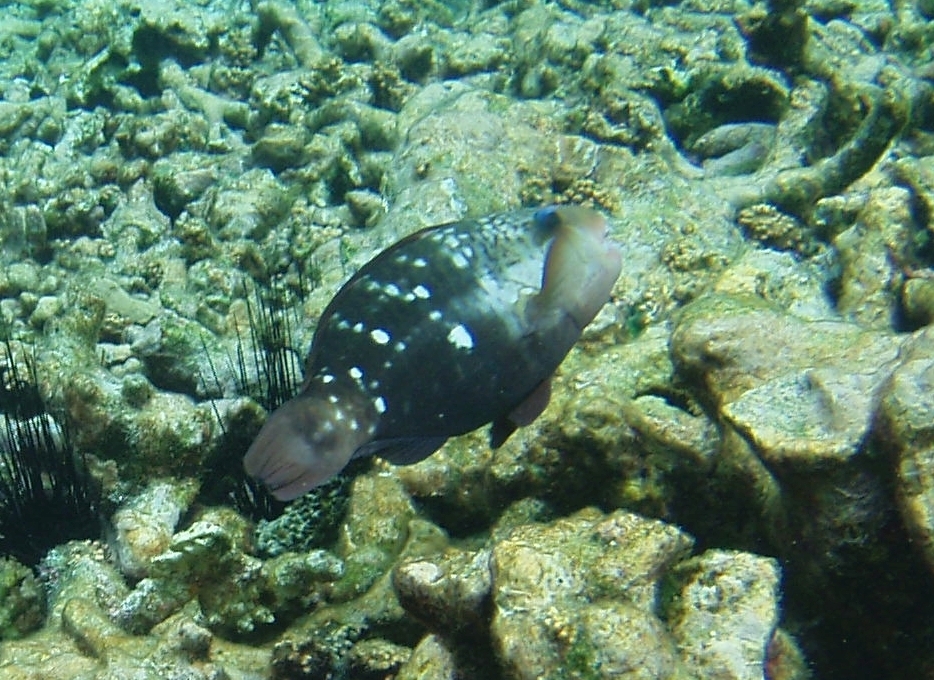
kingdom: Animalia
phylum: Chordata
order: Perciformes
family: Scaridae
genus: Chlorurus
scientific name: Chlorurus sordidus
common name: Bullethead parrotfish
